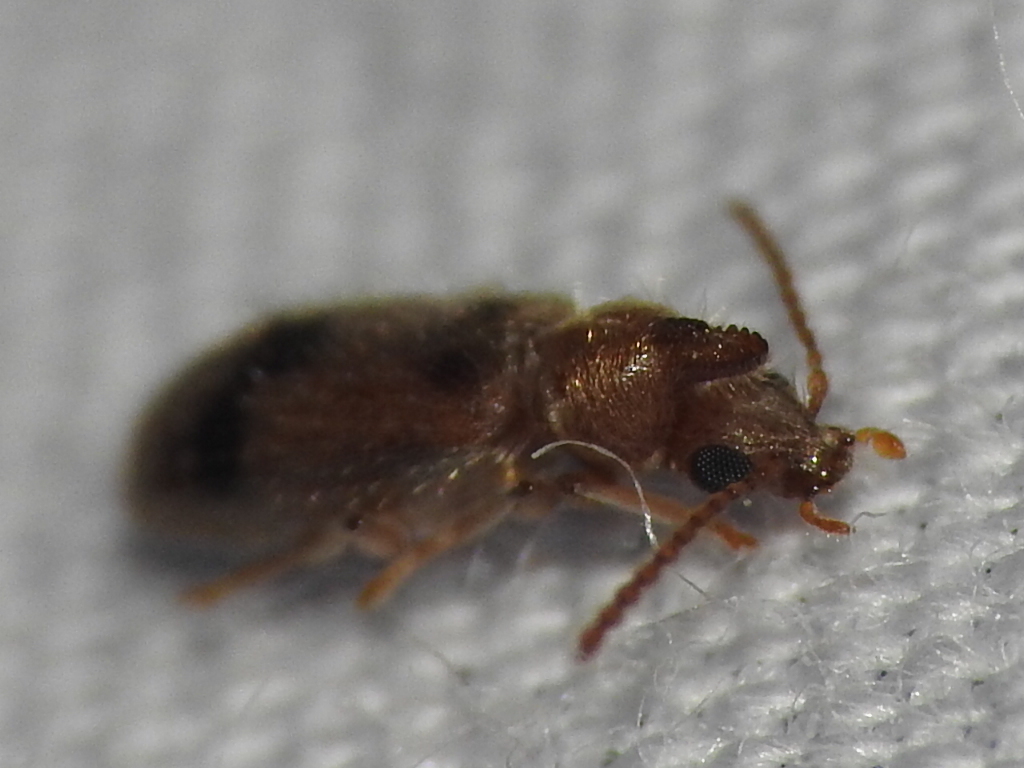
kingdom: Animalia
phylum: Arthropoda
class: Insecta
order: Coleoptera
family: Anthicidae
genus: Notoxus
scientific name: Notoxus monodon
